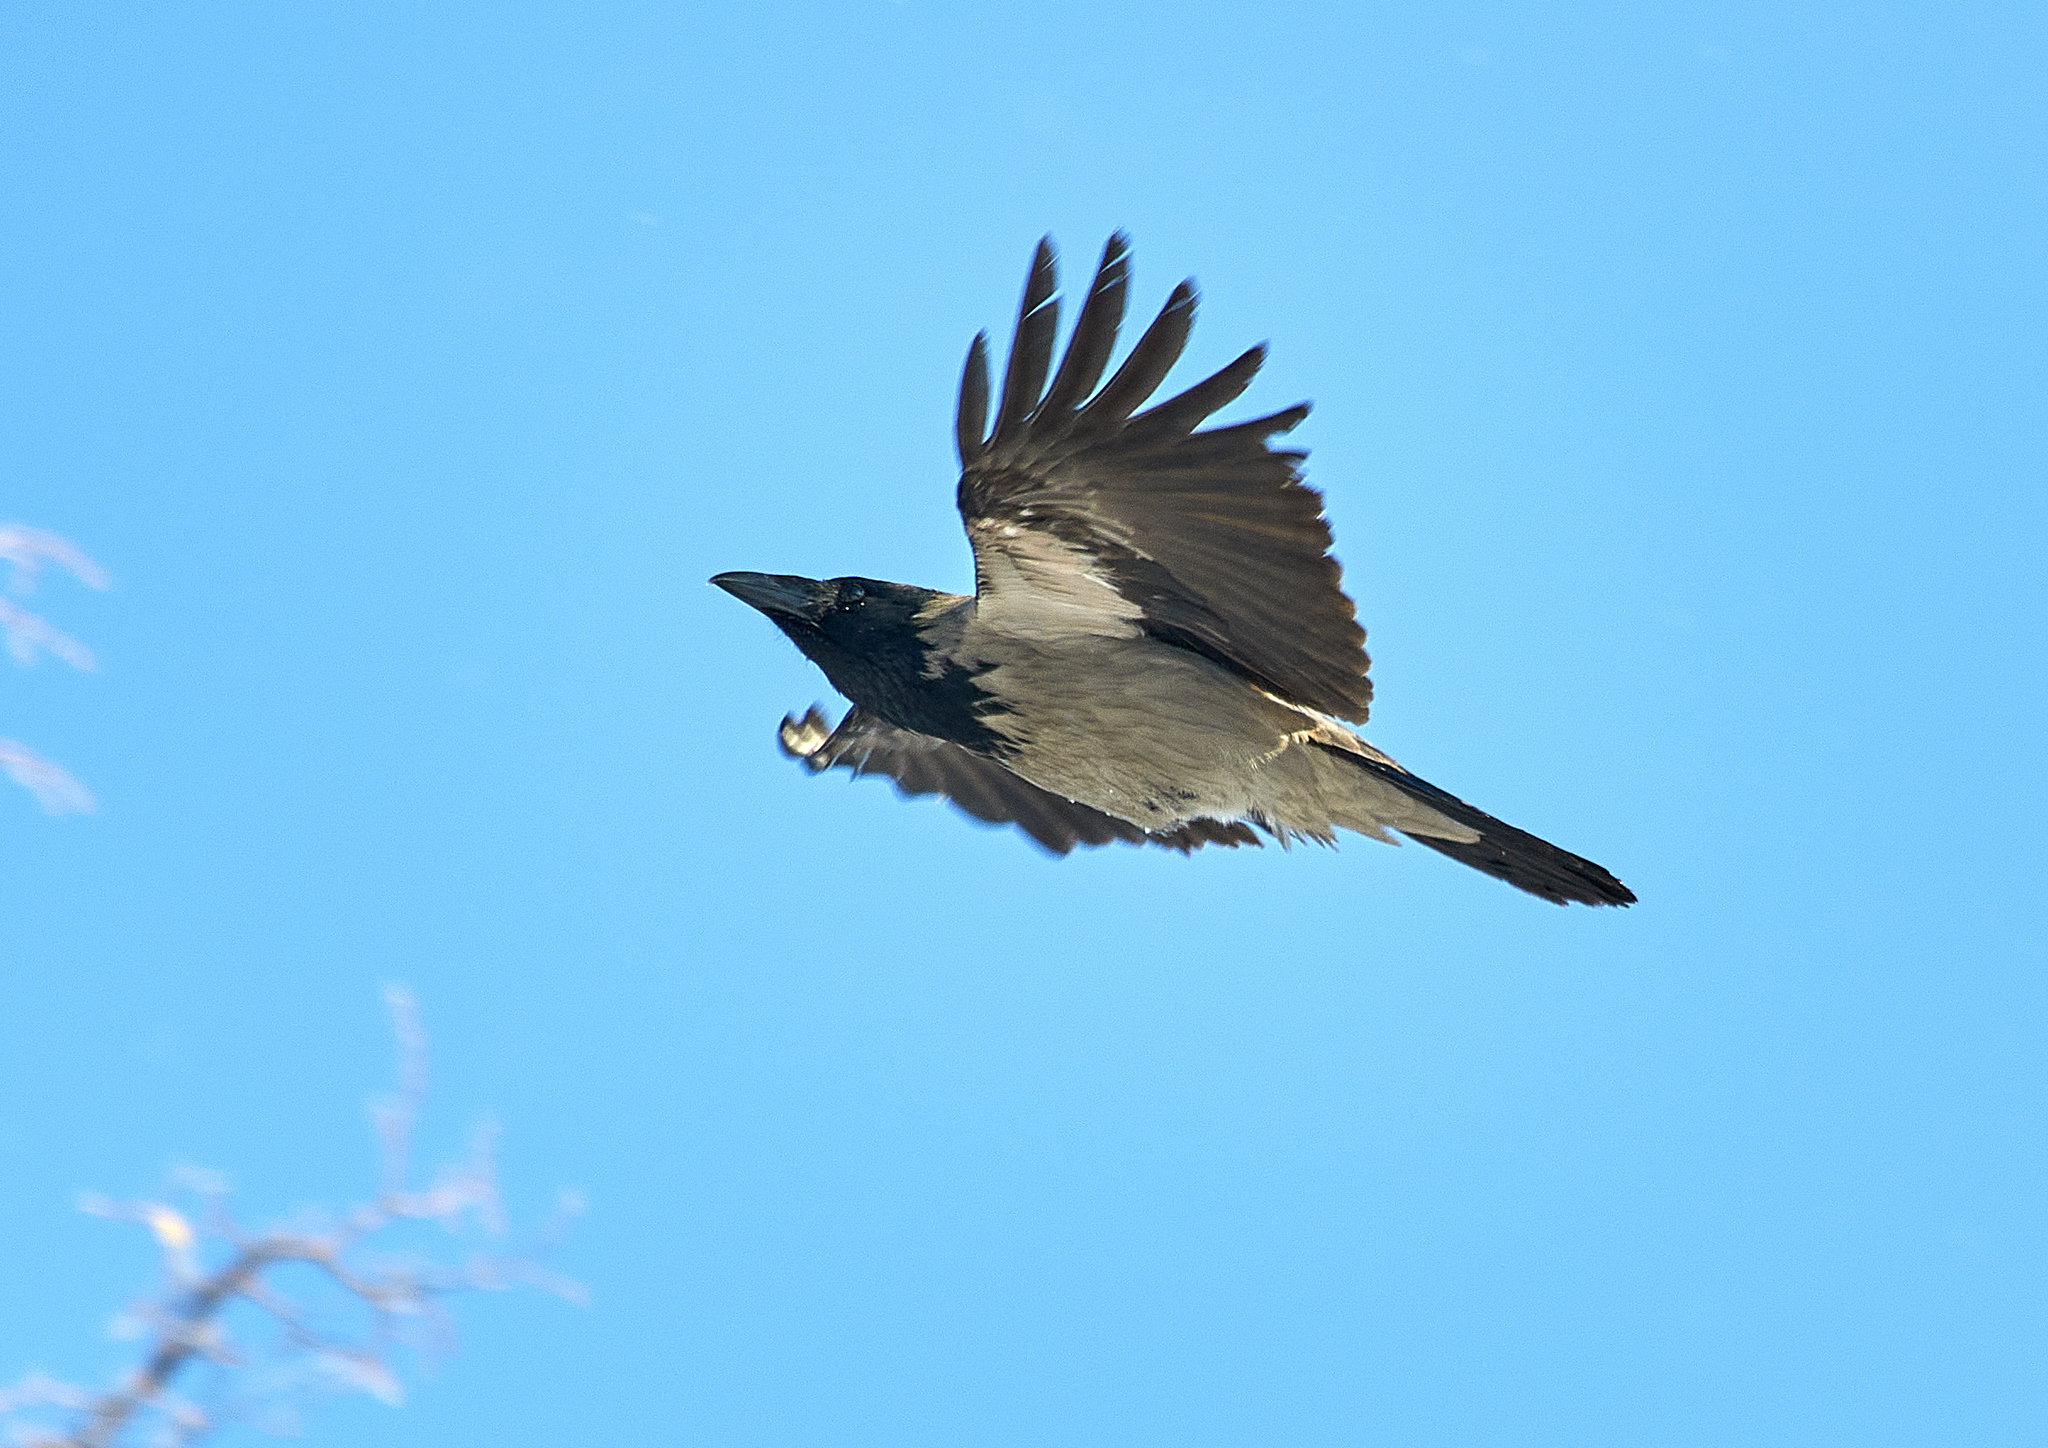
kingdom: Animalia
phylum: Chordata
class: Aves
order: Passeriformes
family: Corvidae
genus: Corvus
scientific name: Corvus cornix
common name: Hooded crow
